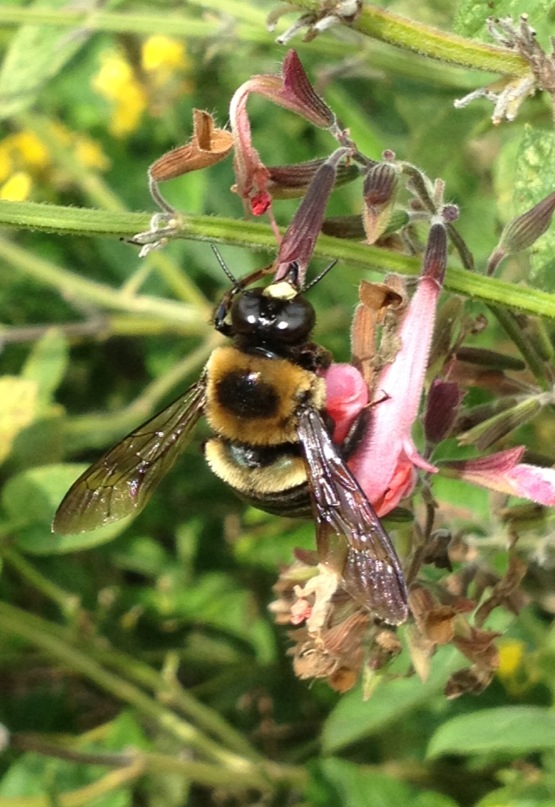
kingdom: Animalia
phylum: Arthropoda
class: Insecta
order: Hymenoptera
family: Apidae
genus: Xylocopa
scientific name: Xylocopa virginica
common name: Carpenter bee
